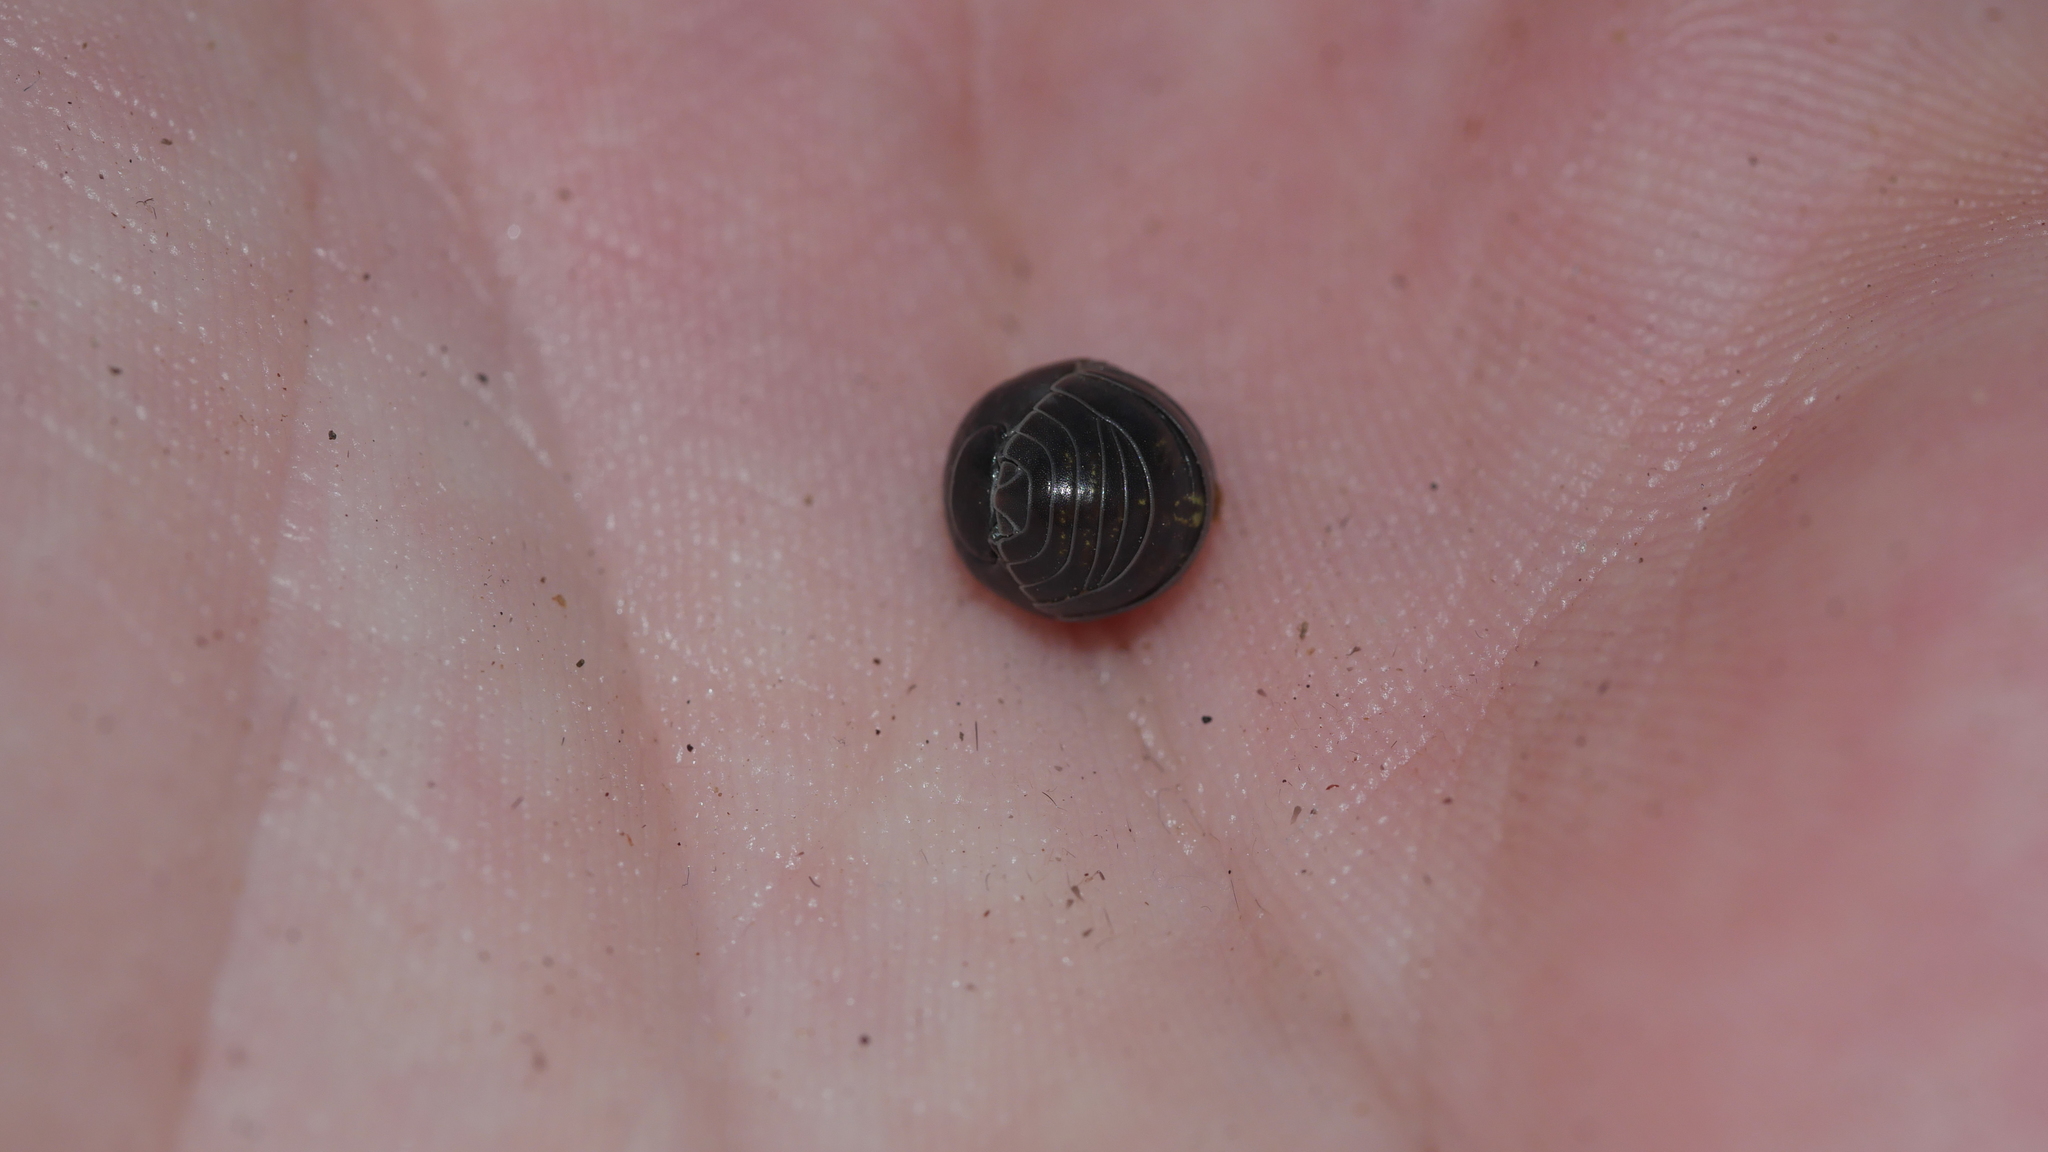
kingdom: Animalia
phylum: Arthropoda
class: Malacostraca
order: Isopoda
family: Armadillidiidae
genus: Armadillidium
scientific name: Armadillidium vulgare
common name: Common pill woodlouse
